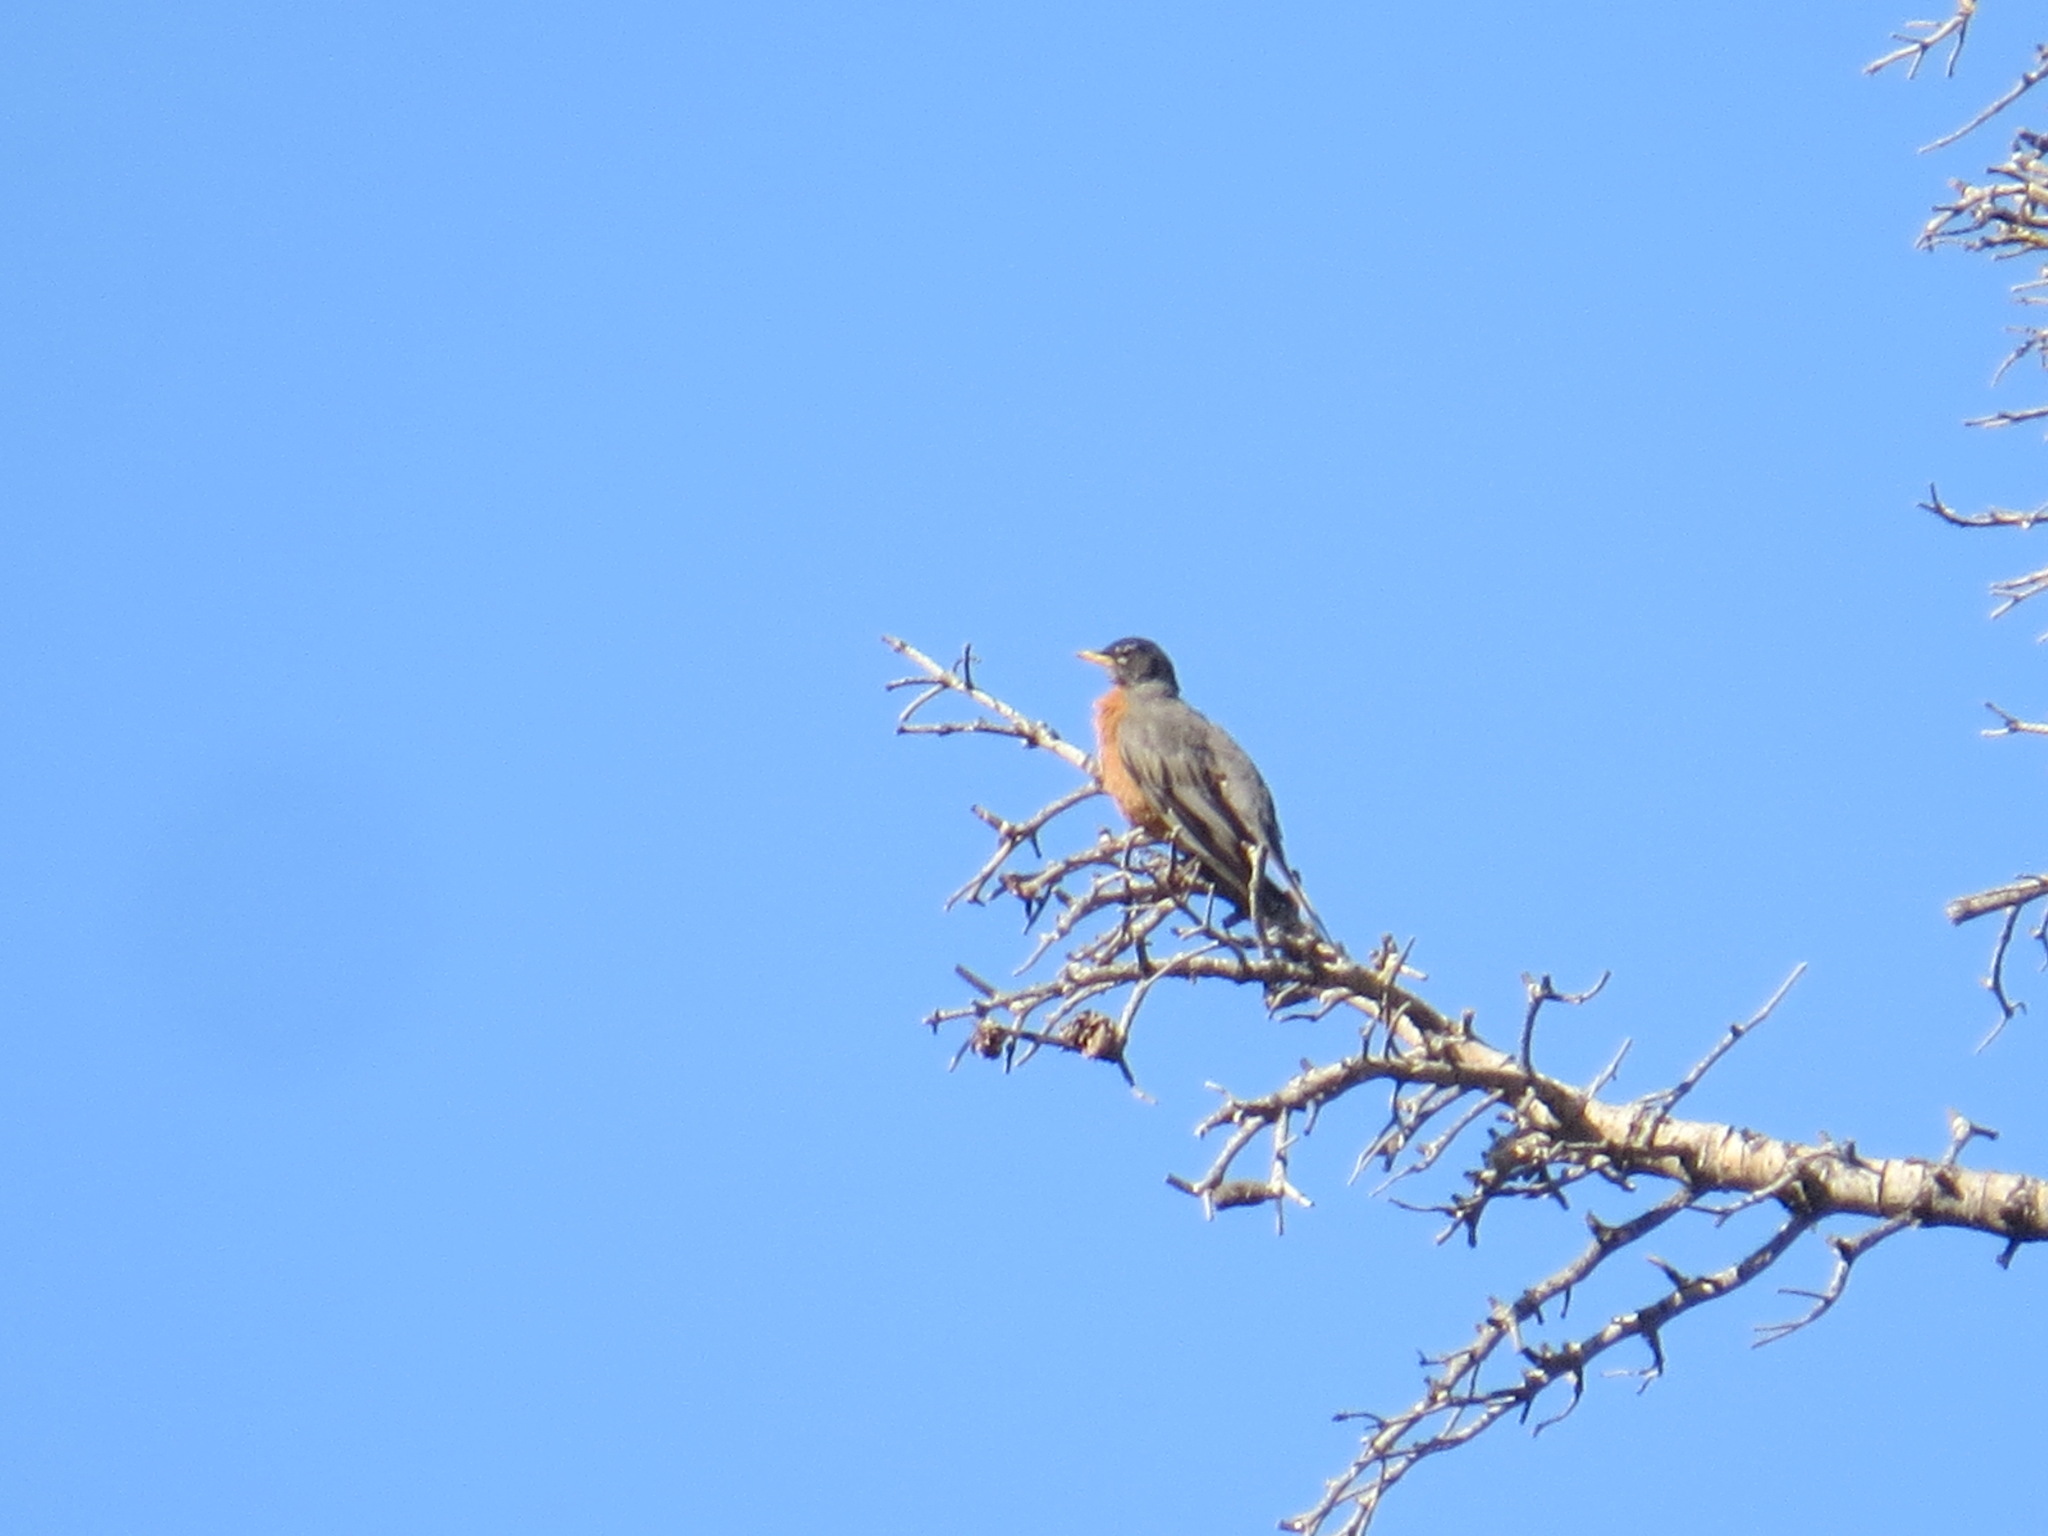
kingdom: Animalia
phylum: Chordata
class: Aves
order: Passeriformes
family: Turdidae
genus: Turdus
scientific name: Turdus migratorius
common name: American robin
